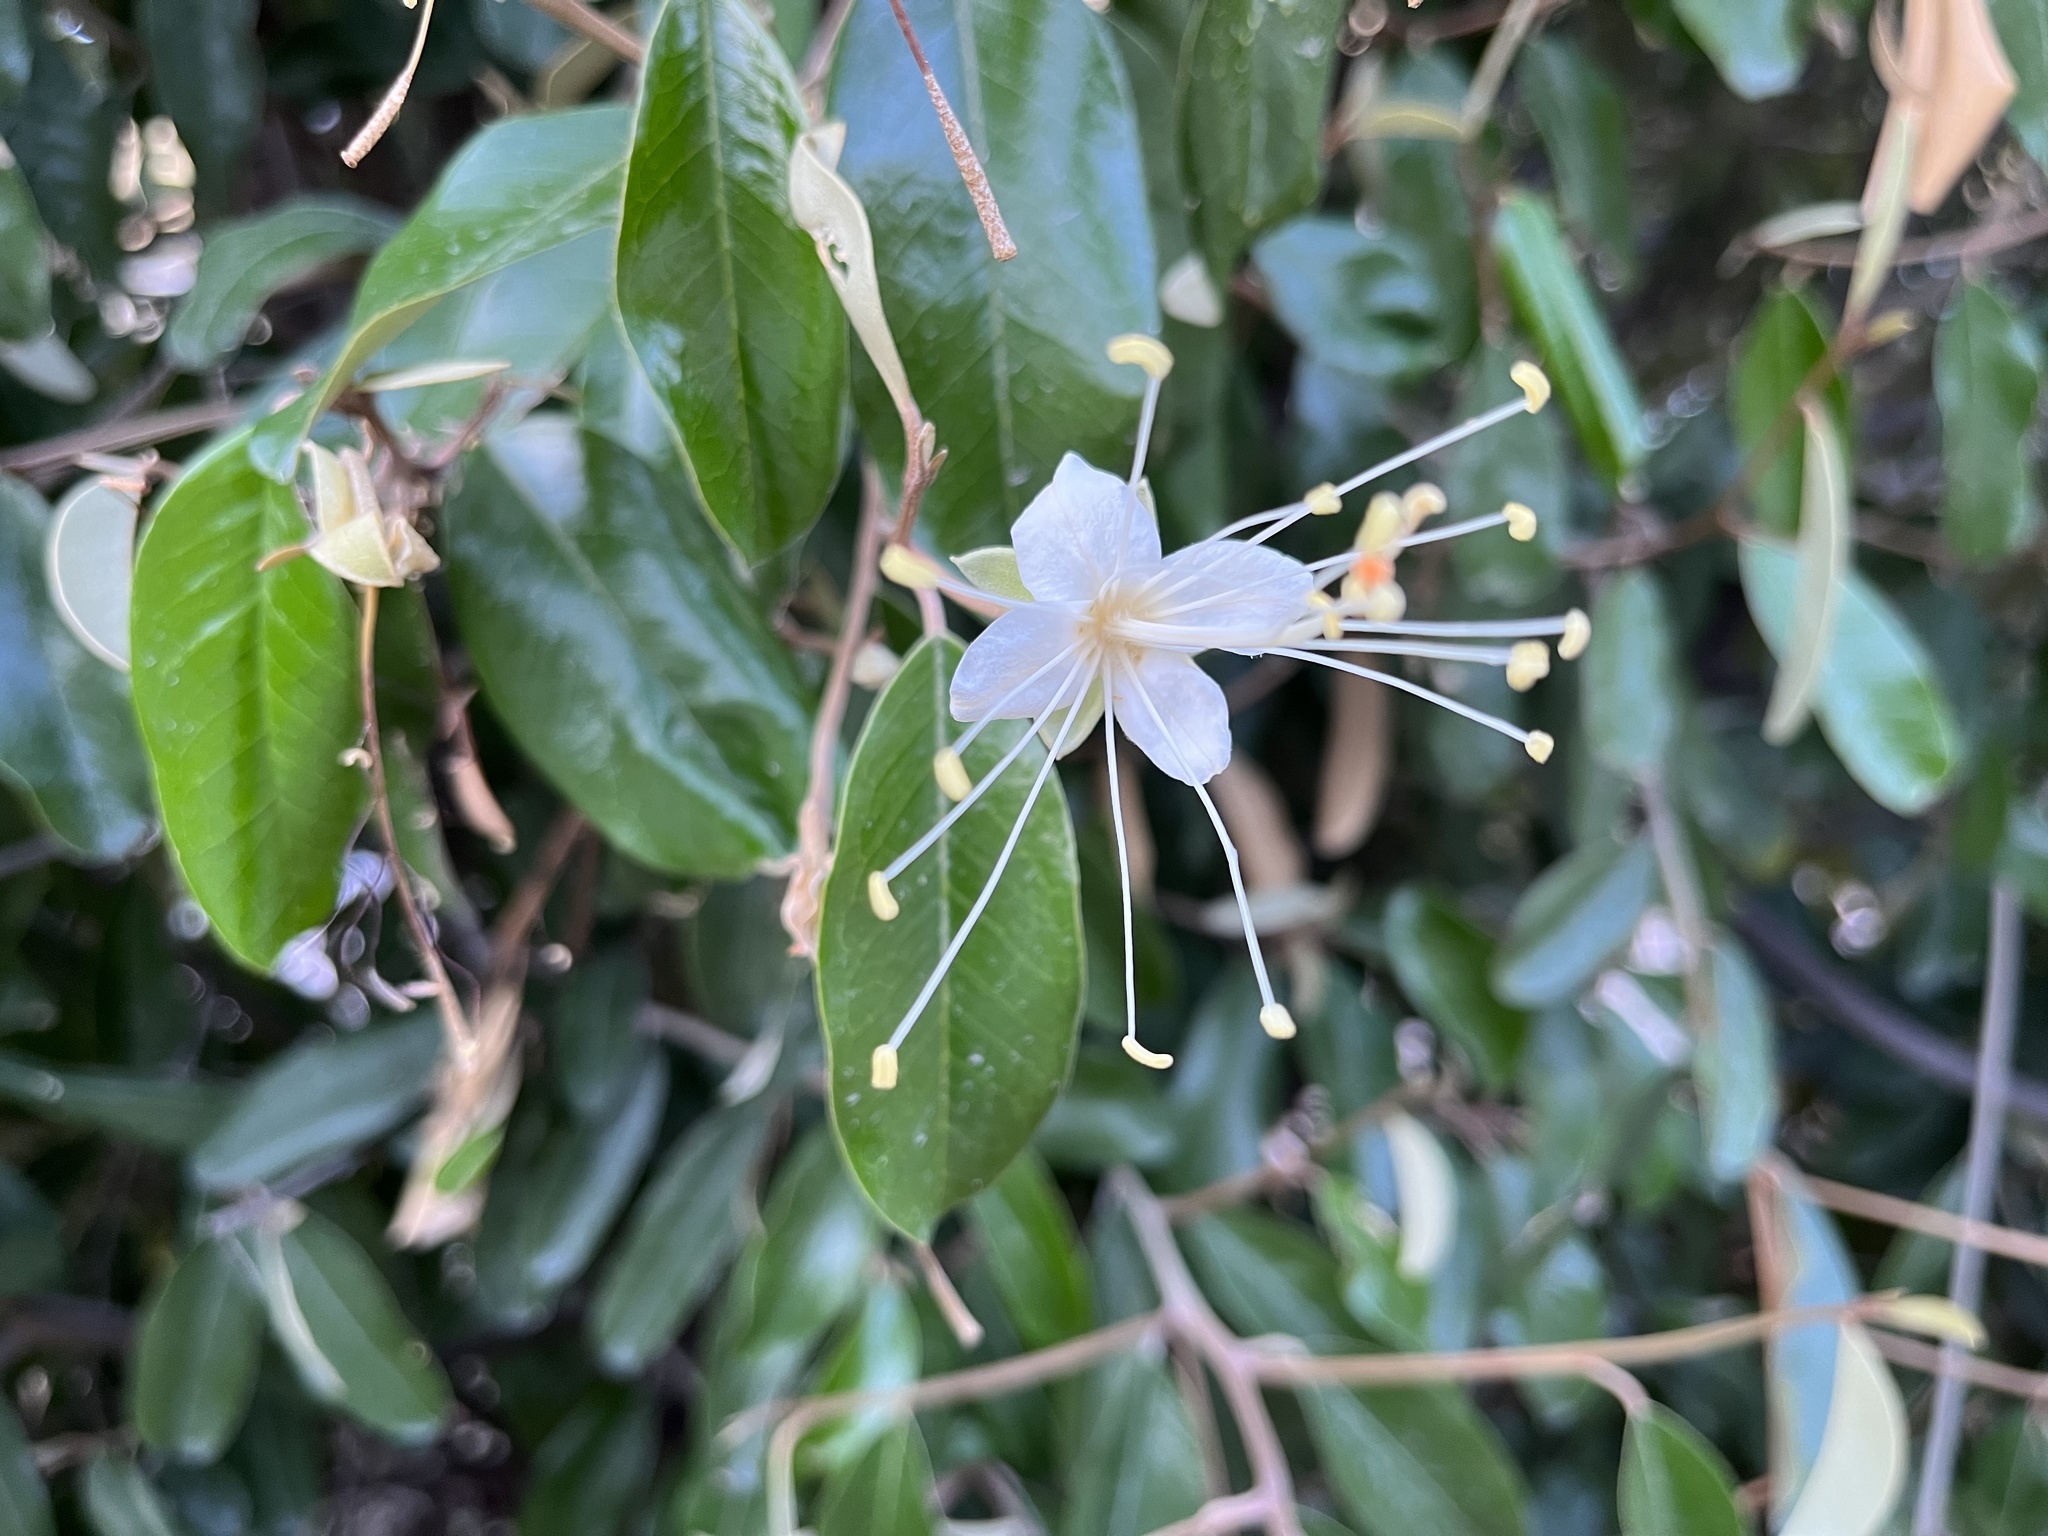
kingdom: Plantae
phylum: Tracheophyta
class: Magnoliopsida
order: Brassicales
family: Capparaceae
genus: Quadrella
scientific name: Quadrella cynophallophora
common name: Black willow
